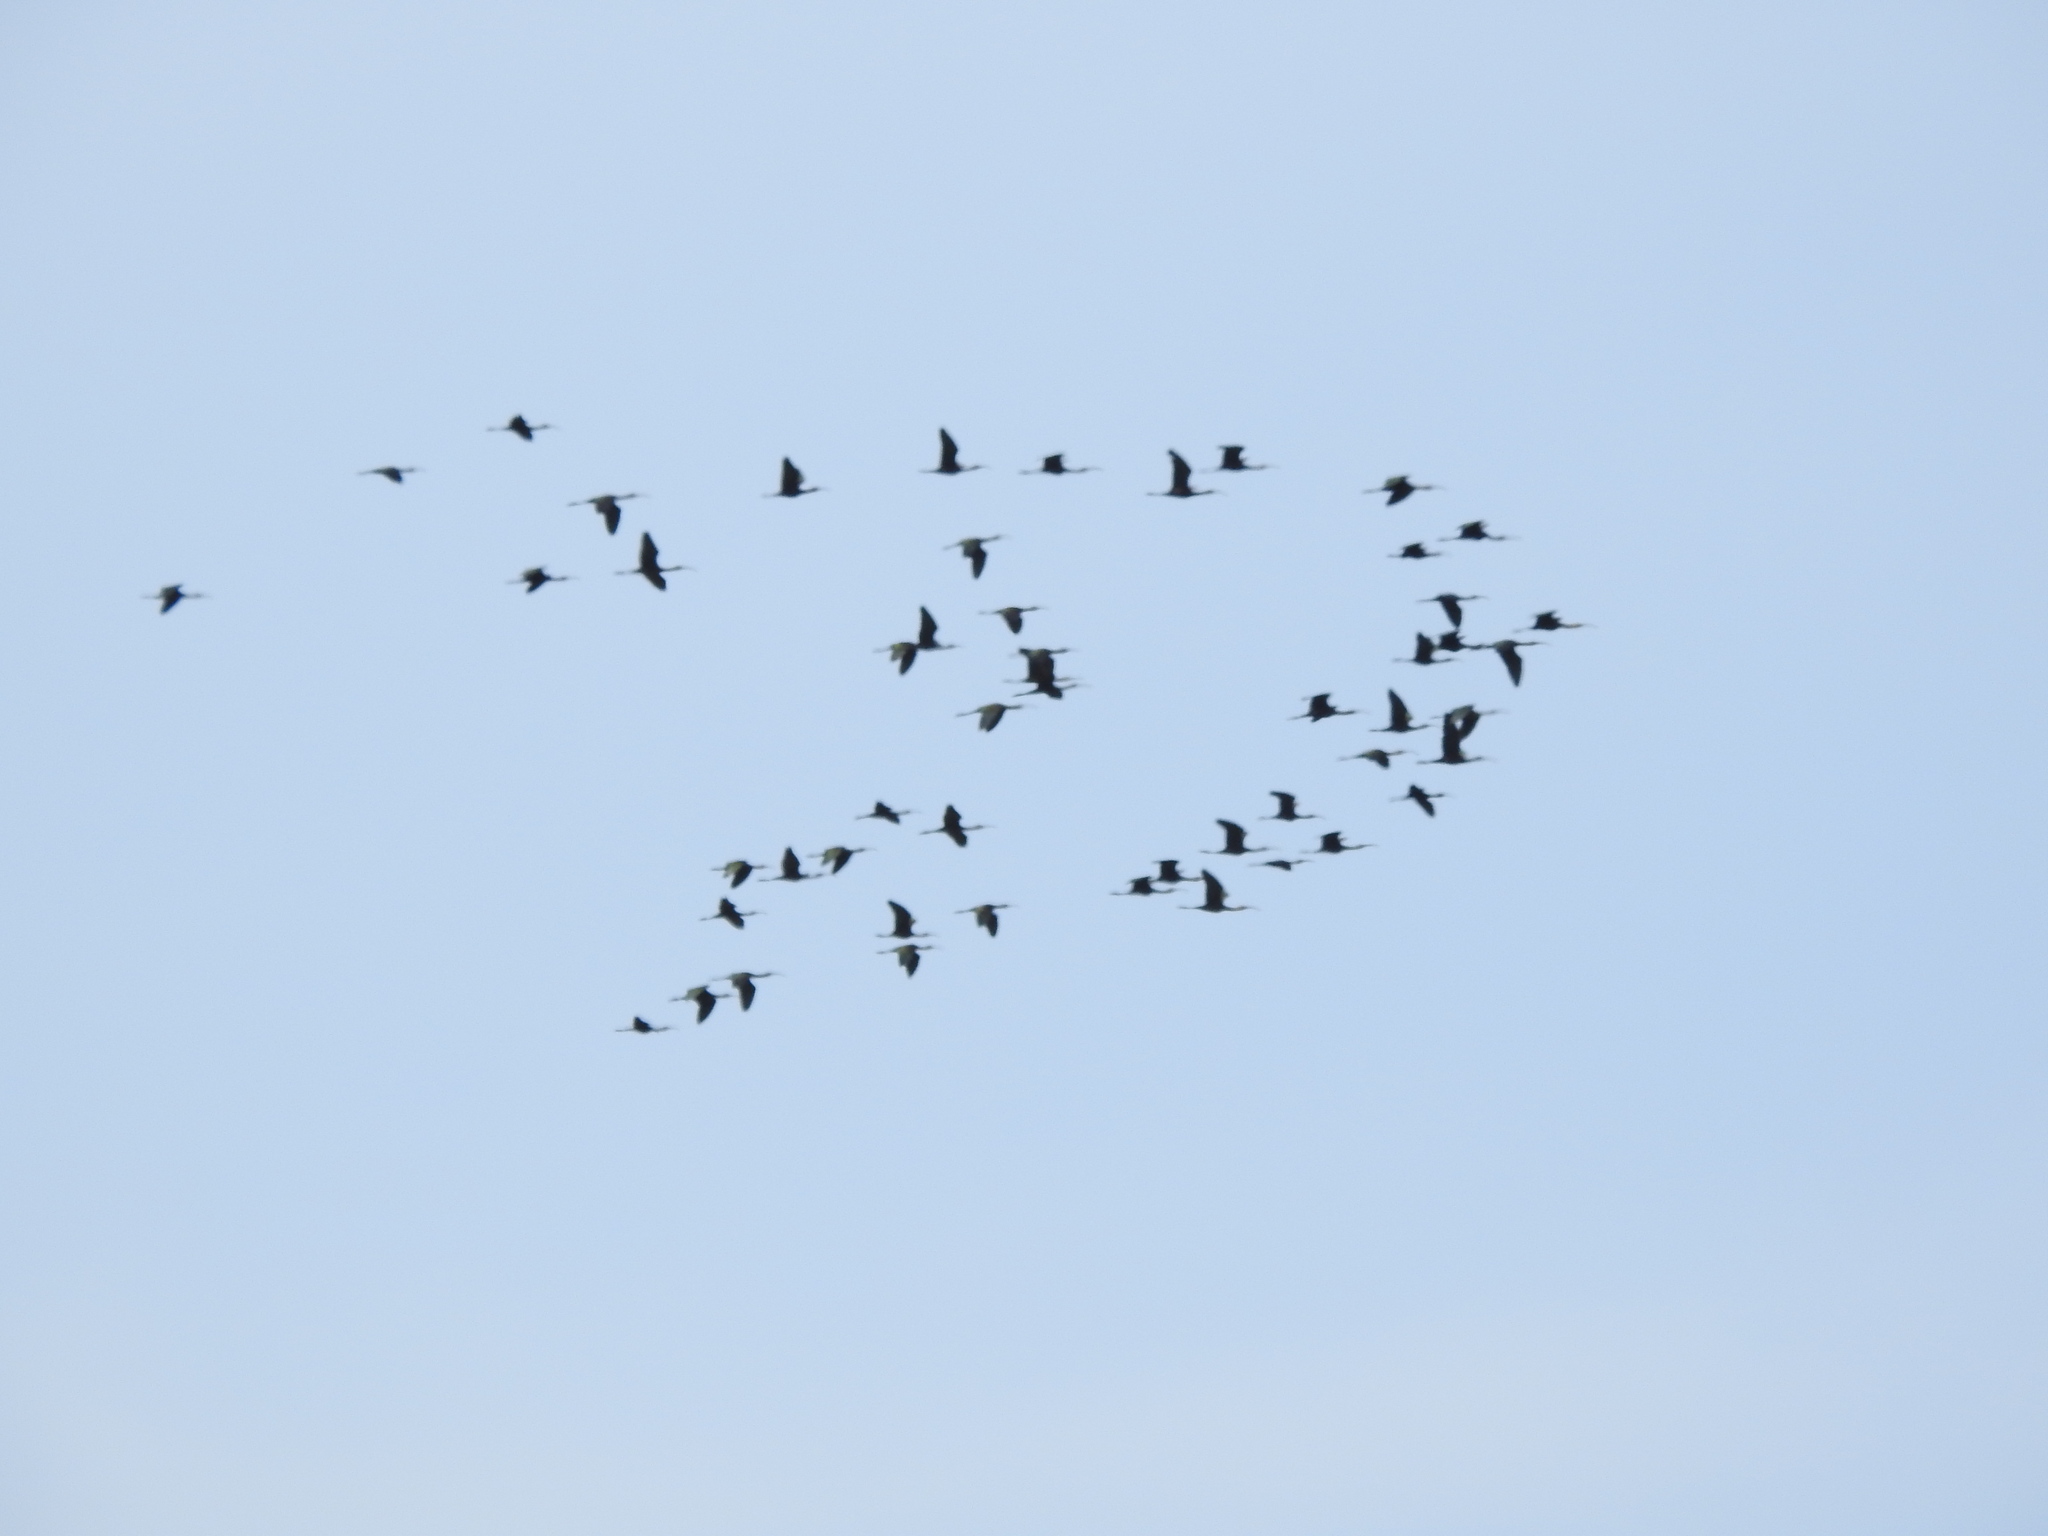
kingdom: Animalia
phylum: Chordata
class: Aves
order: Pelecaniformes
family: Threskiornithidae
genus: Plegadis
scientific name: Plegadis chihi
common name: White-faced ibis
